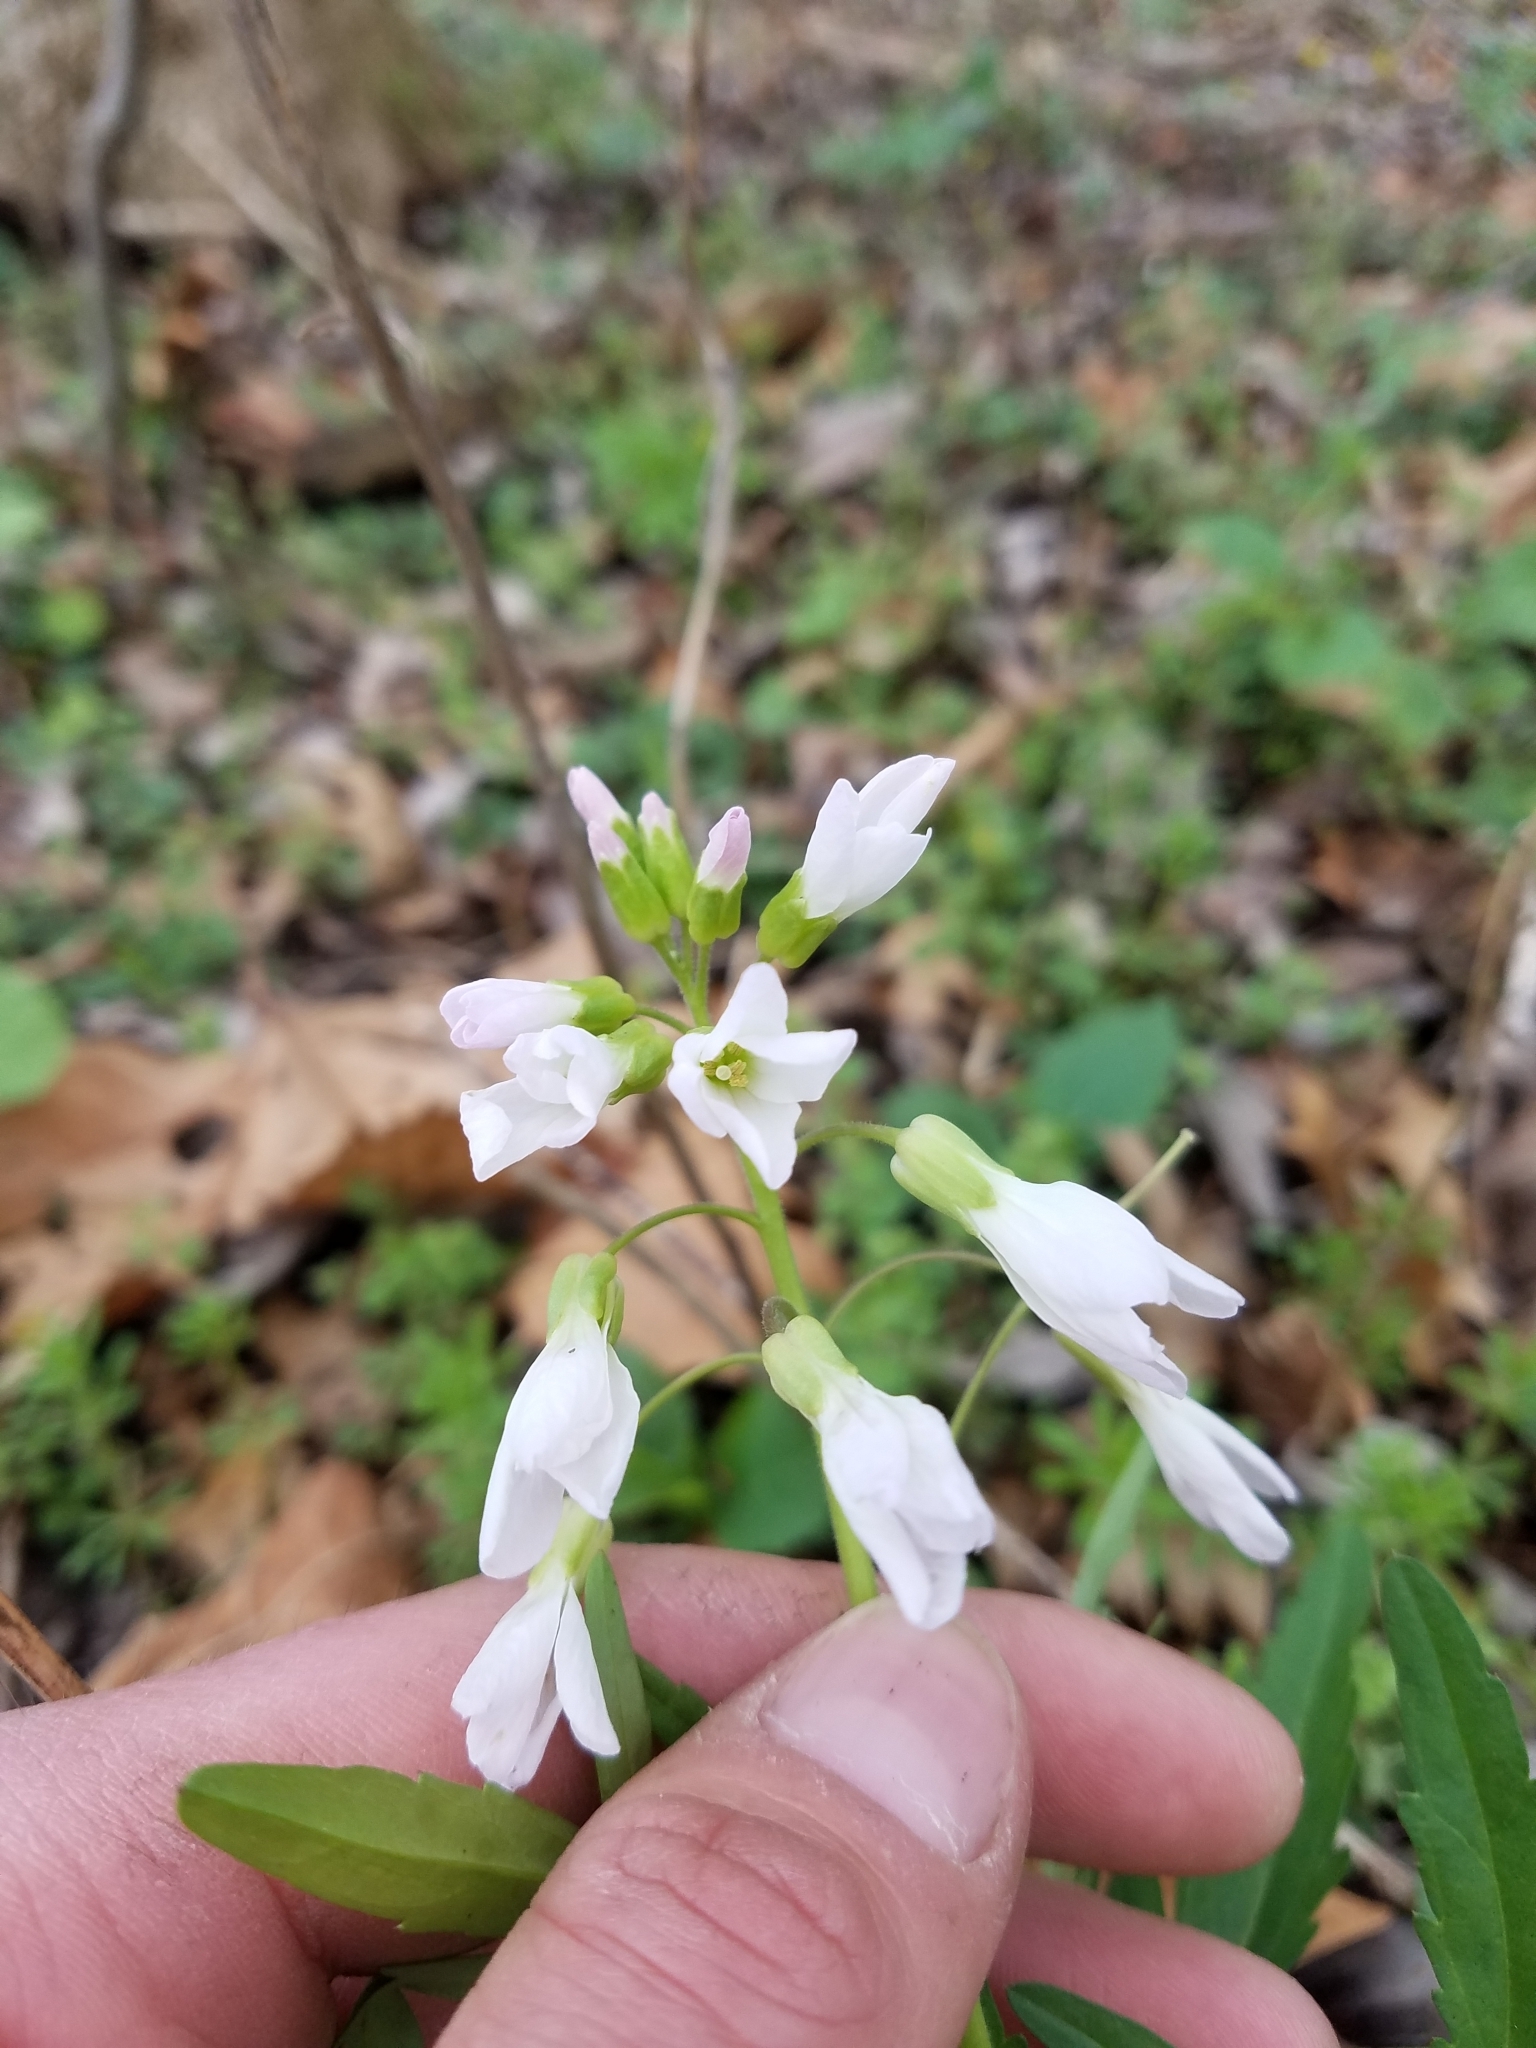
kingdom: Plantae
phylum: Tracheophyta
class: Magnoliopsida
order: Brassicales
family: Brassicaceae
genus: Cardamine
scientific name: Cardamine concatenata
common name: Cut-leaf toothcup
